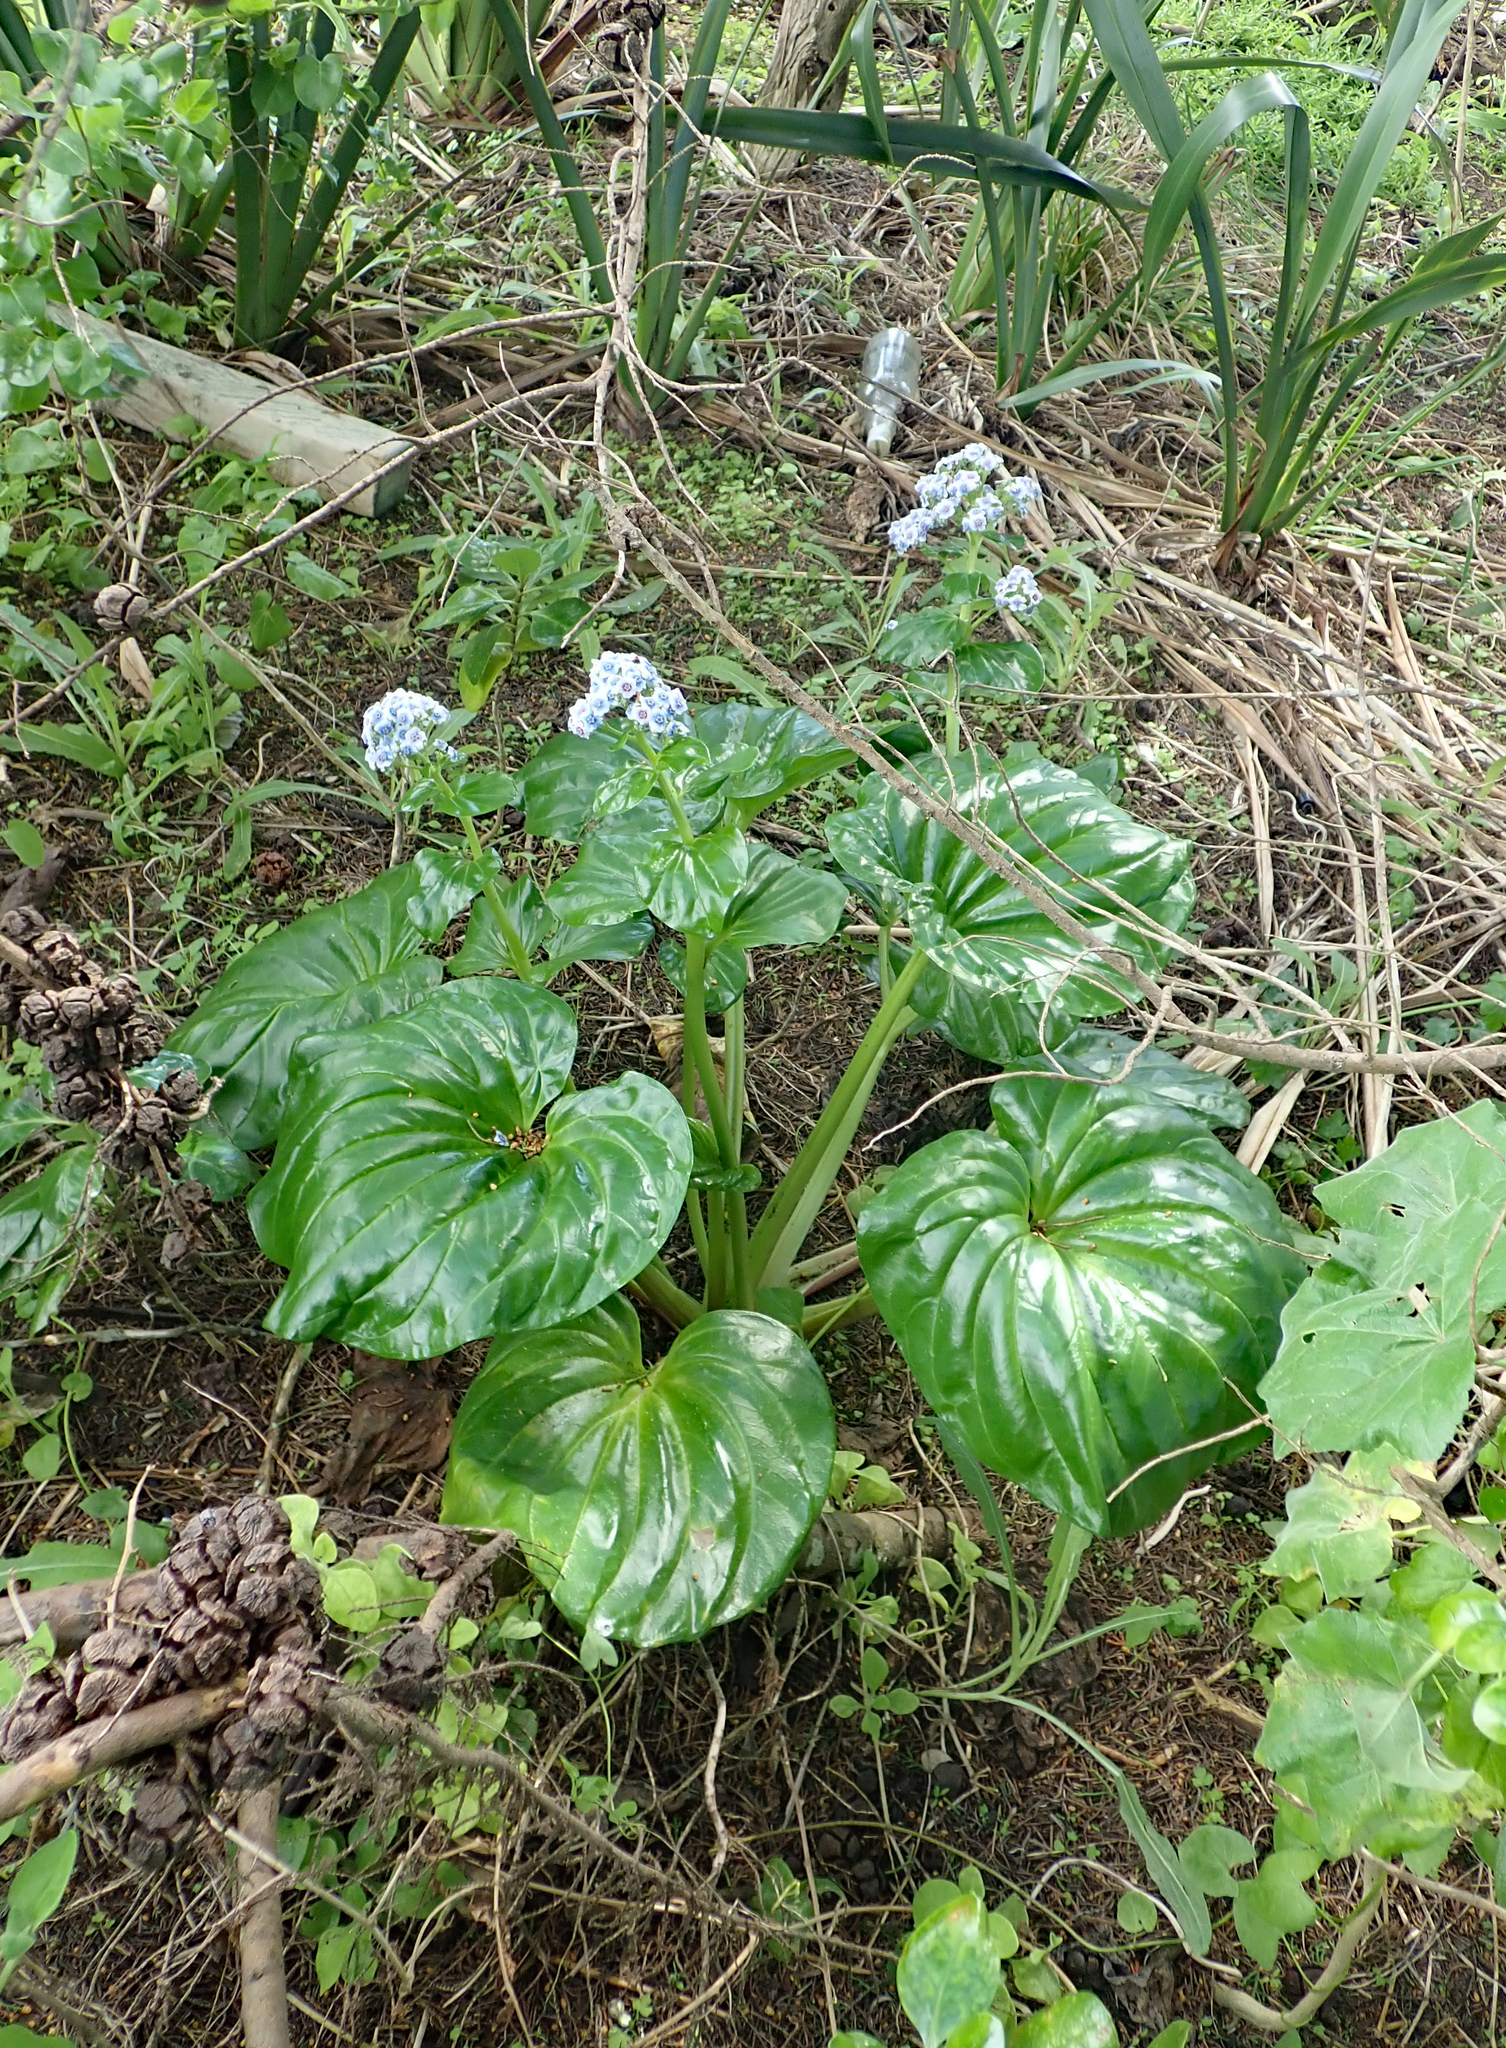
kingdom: Plantae
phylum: Tracheophyta
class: Magnoliopsida
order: Boraginales
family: Boraginaceae
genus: Myosotidium
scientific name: Myosotidium hortensia
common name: Giant forget-me-not
